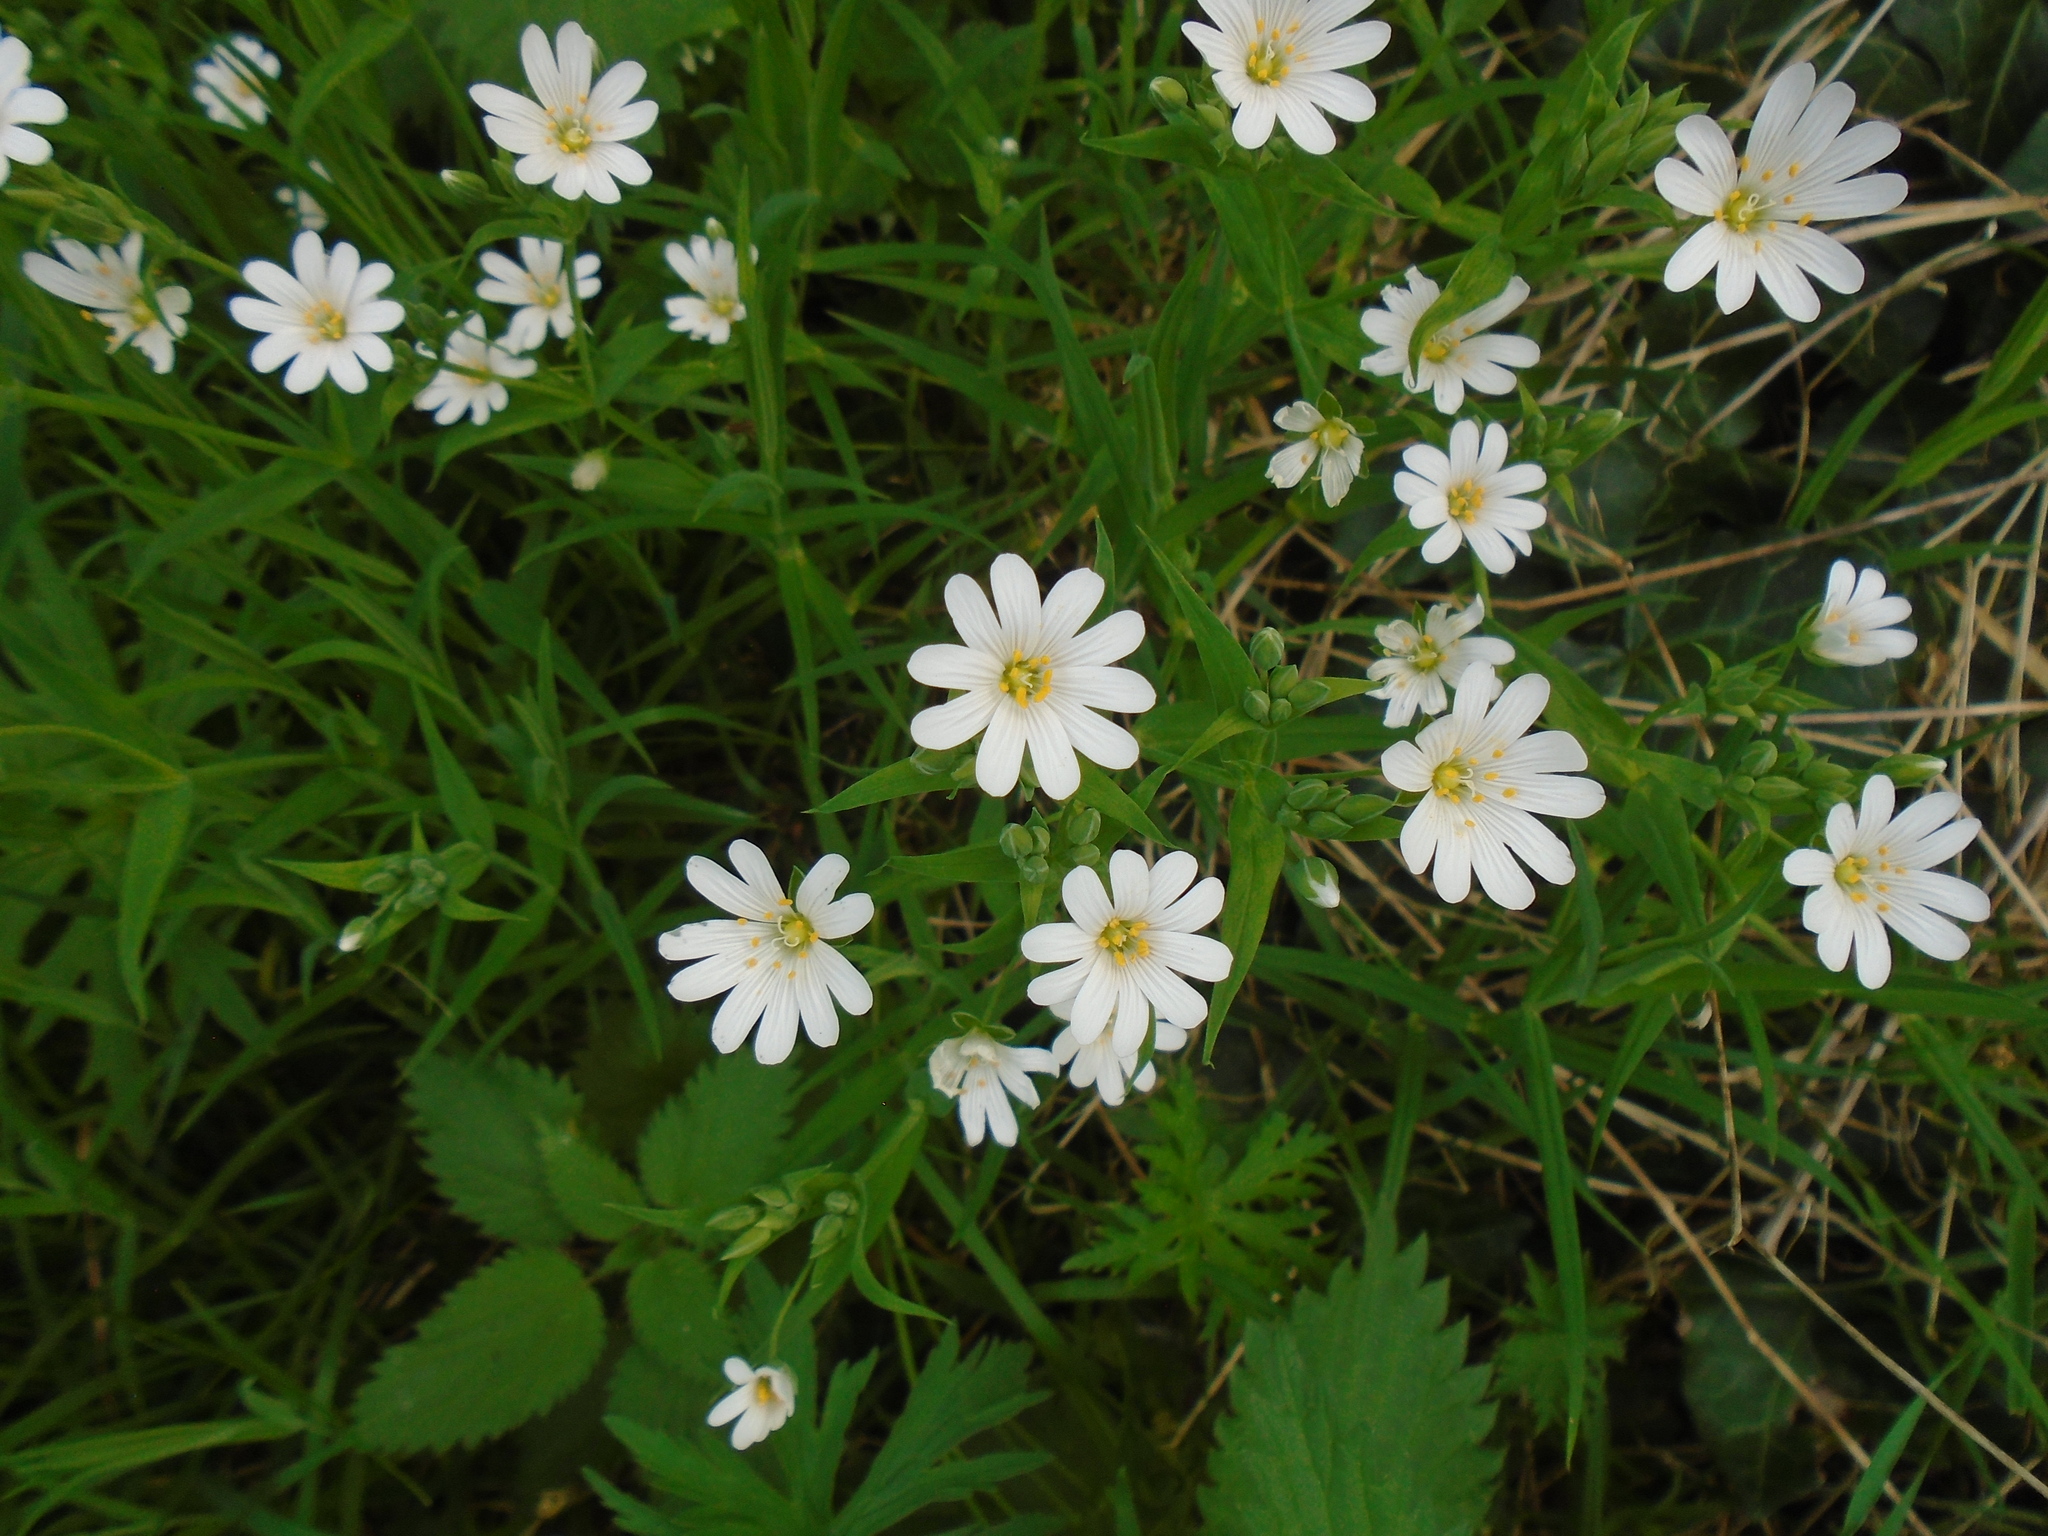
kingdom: Plantae
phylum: Tracheophyta
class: Magnoliopsida
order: Caryophyllales
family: Caryophyllaceae
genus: Rabelera
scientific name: Rabelera holostea
